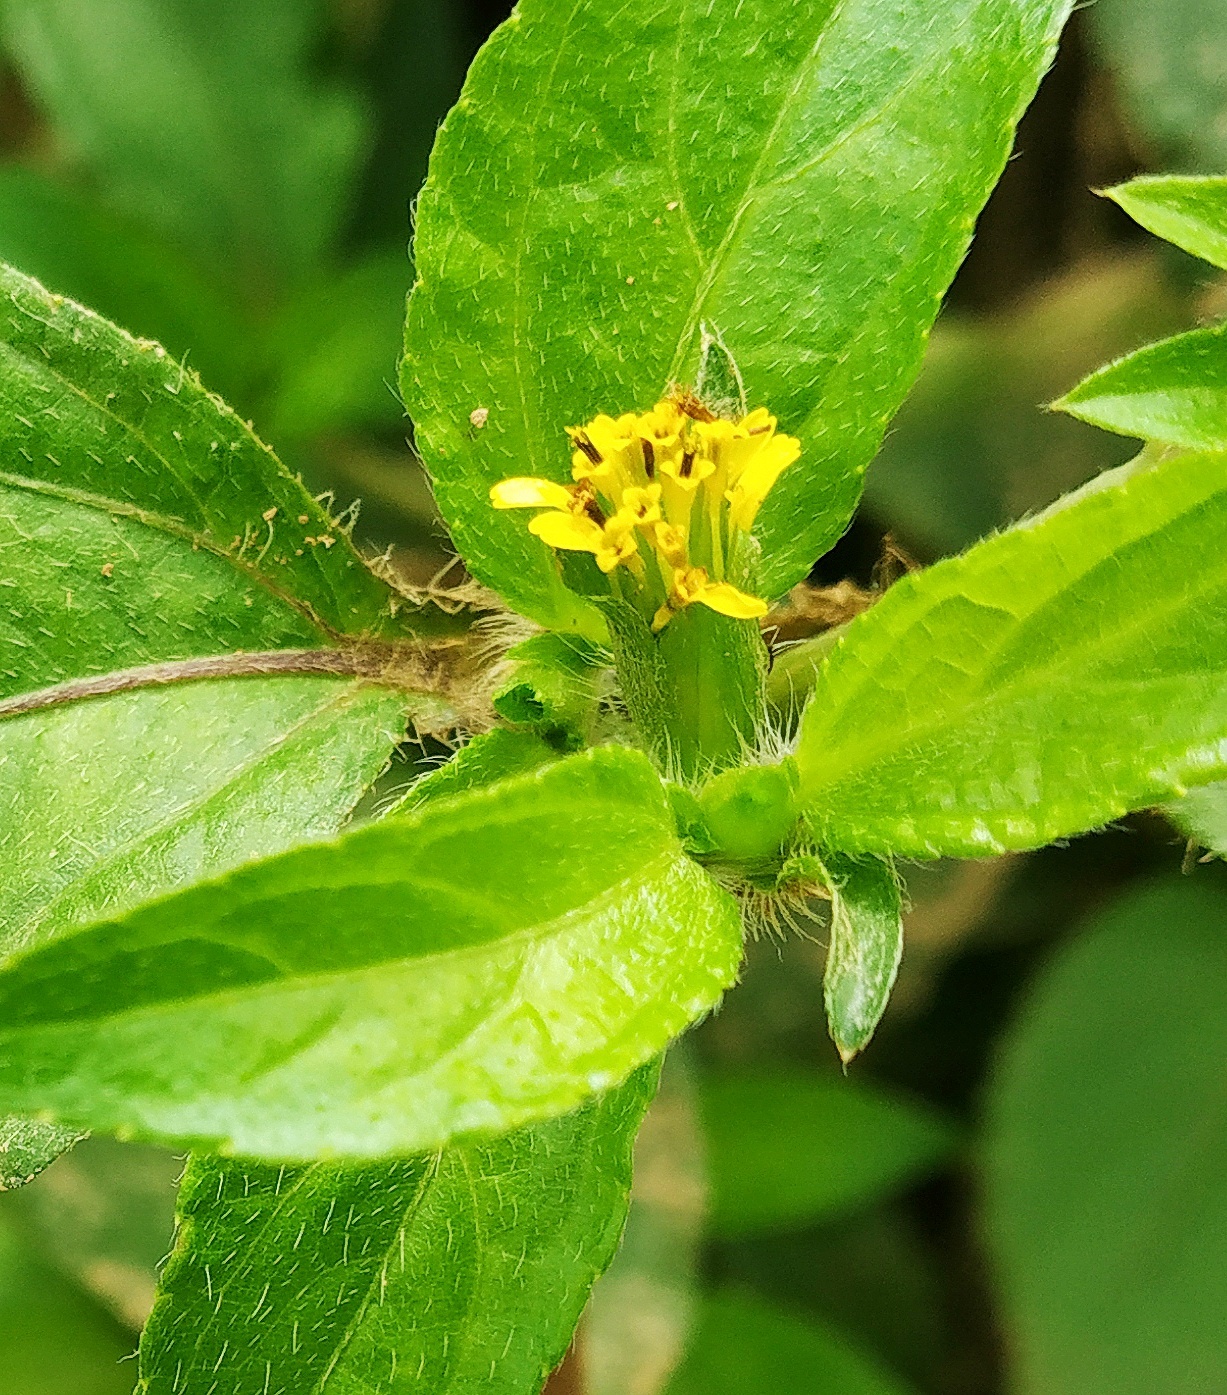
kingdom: Plantae
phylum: Tracheophyta
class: Magnoliopsida
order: Asterales
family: Asteraceae
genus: Synedrella
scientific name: Synedrella nodiflora
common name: Nodeweed
